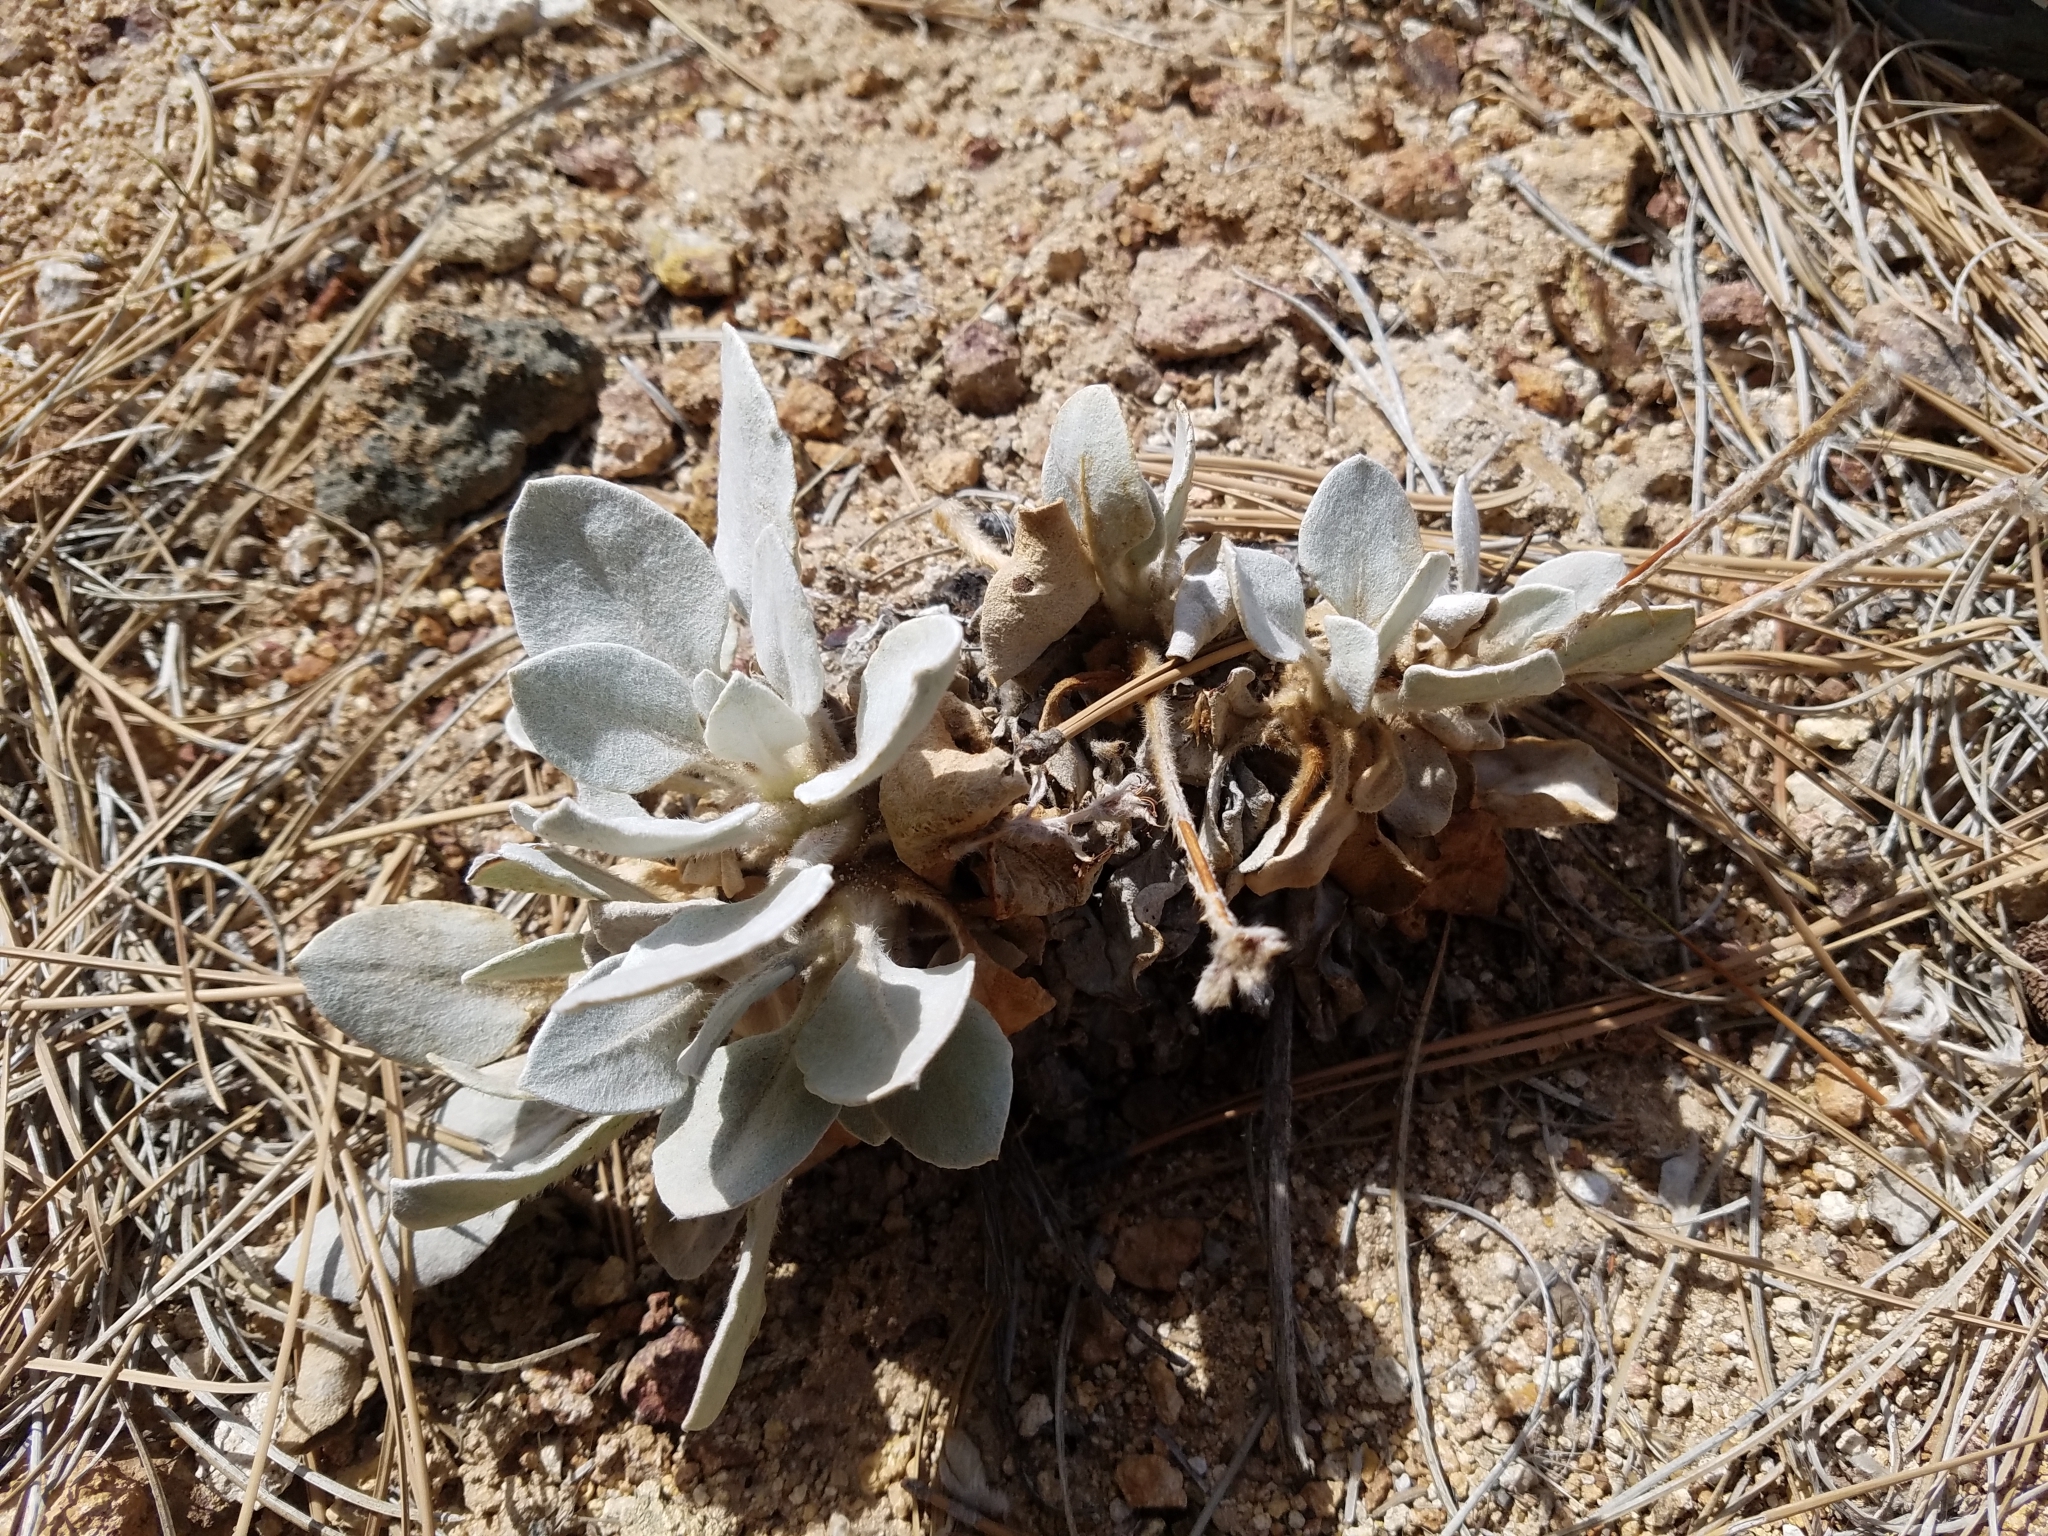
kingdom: Plantae
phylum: Tracheophyta
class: Magnoliopsida
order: Caryophyllales
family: Polygonaceae
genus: Eriogonum
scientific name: Eriogonum robustum
